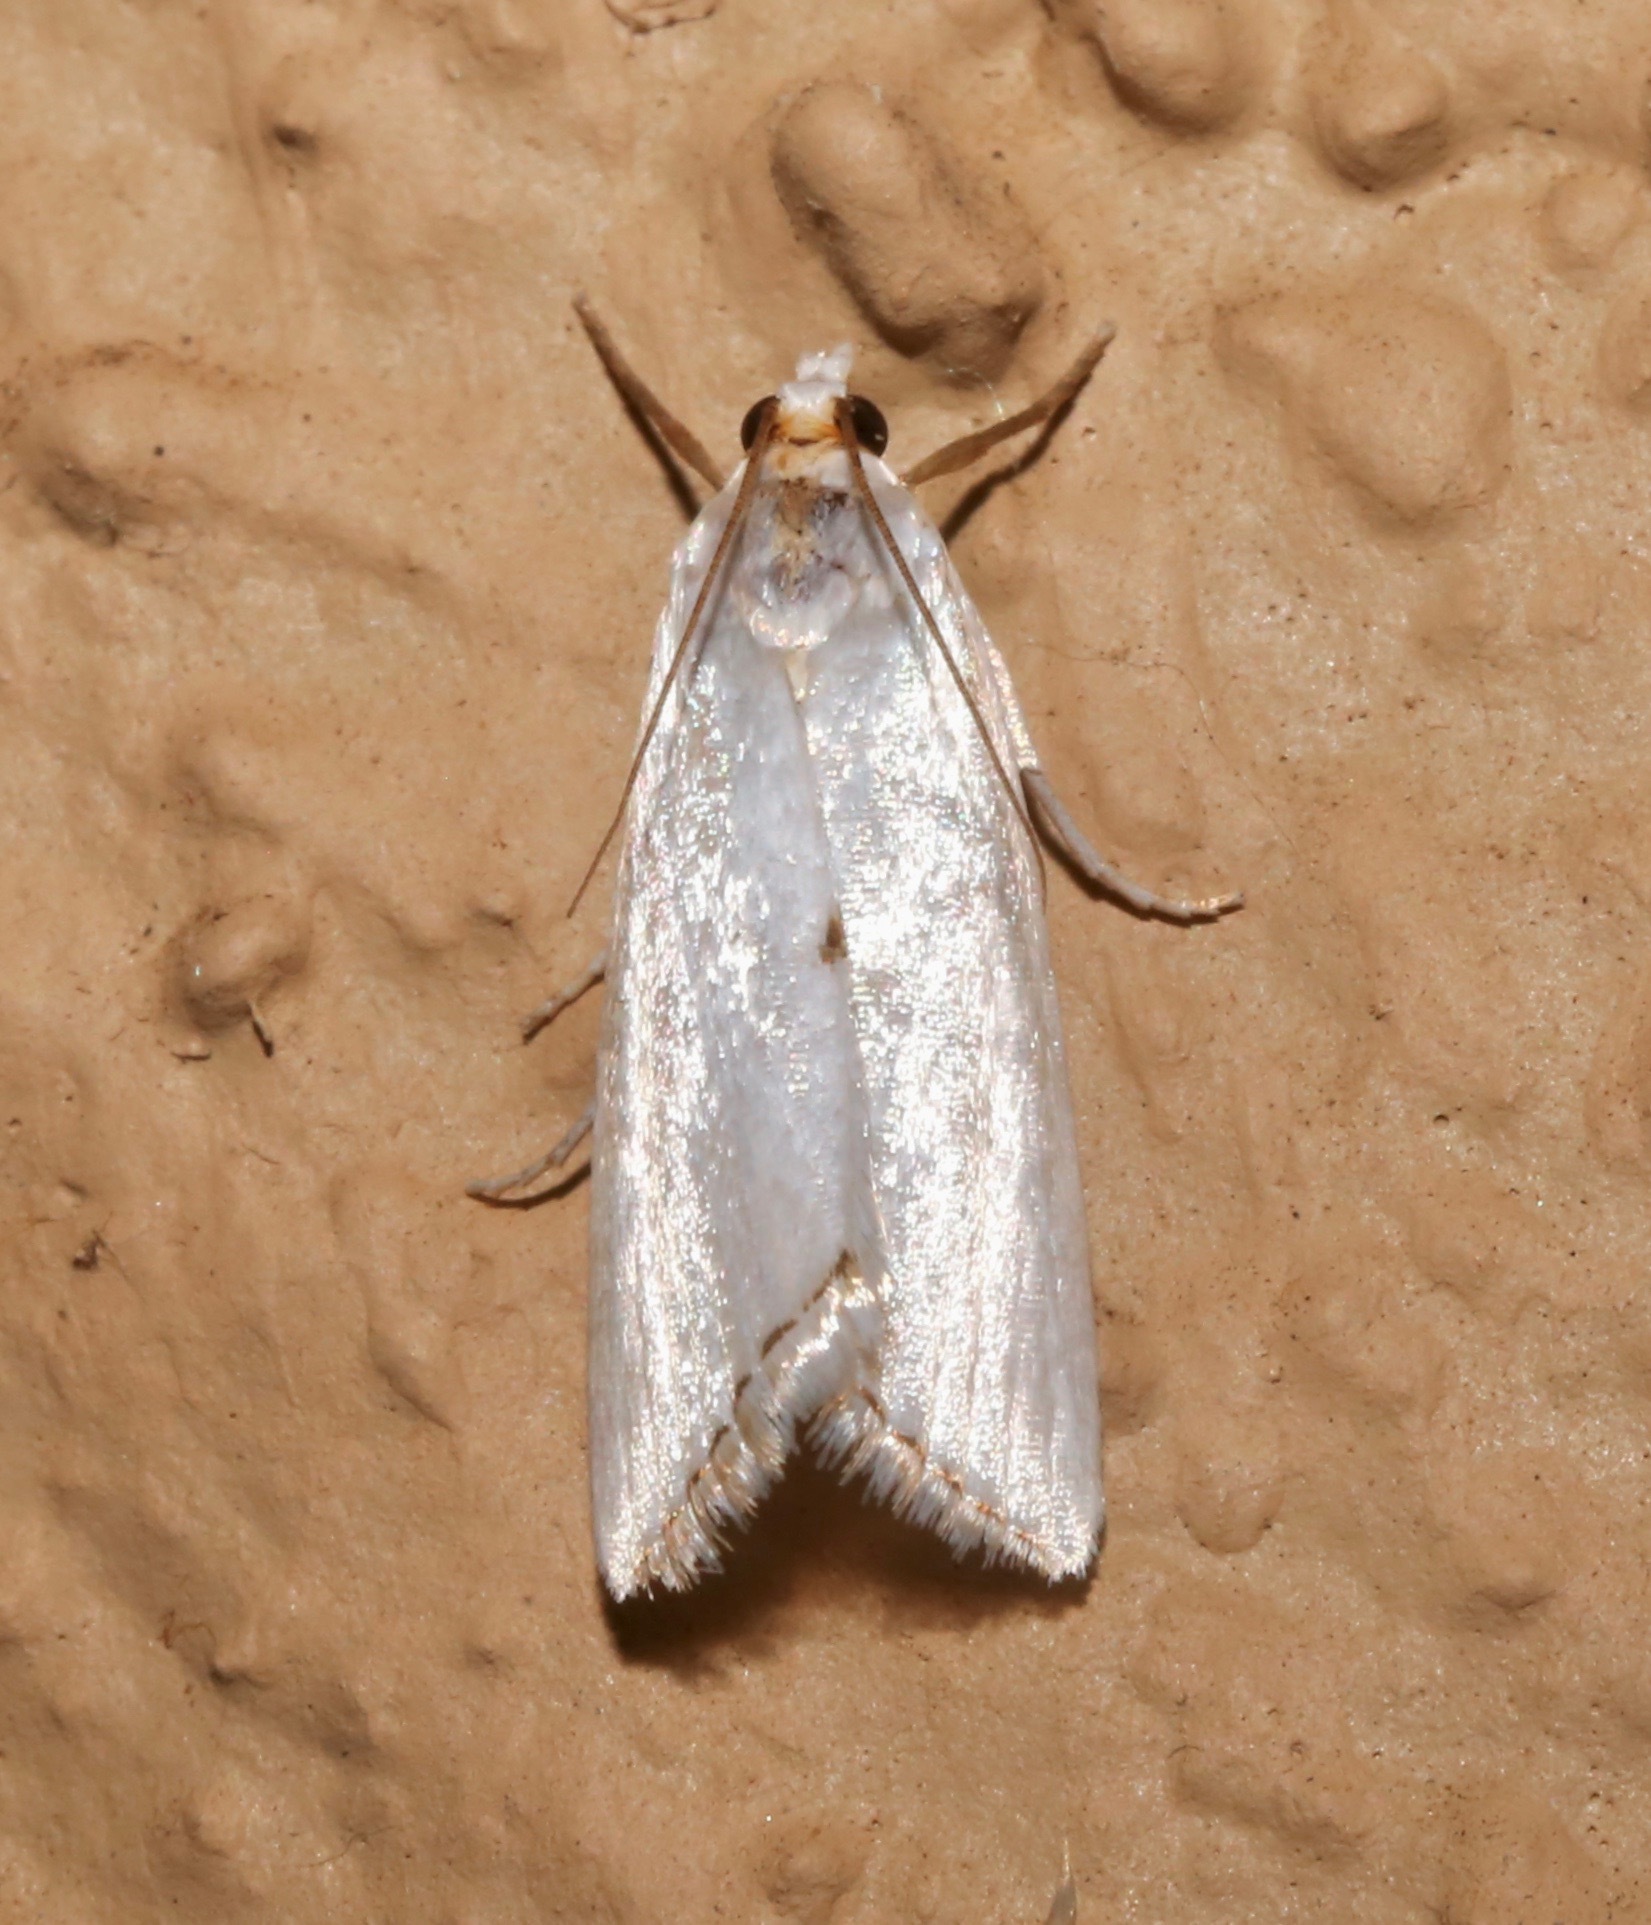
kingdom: Animalia
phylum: Arthropoda
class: Insecta
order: Lepidoptera
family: Crambidae
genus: Argyria
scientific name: Argyria nivalis
